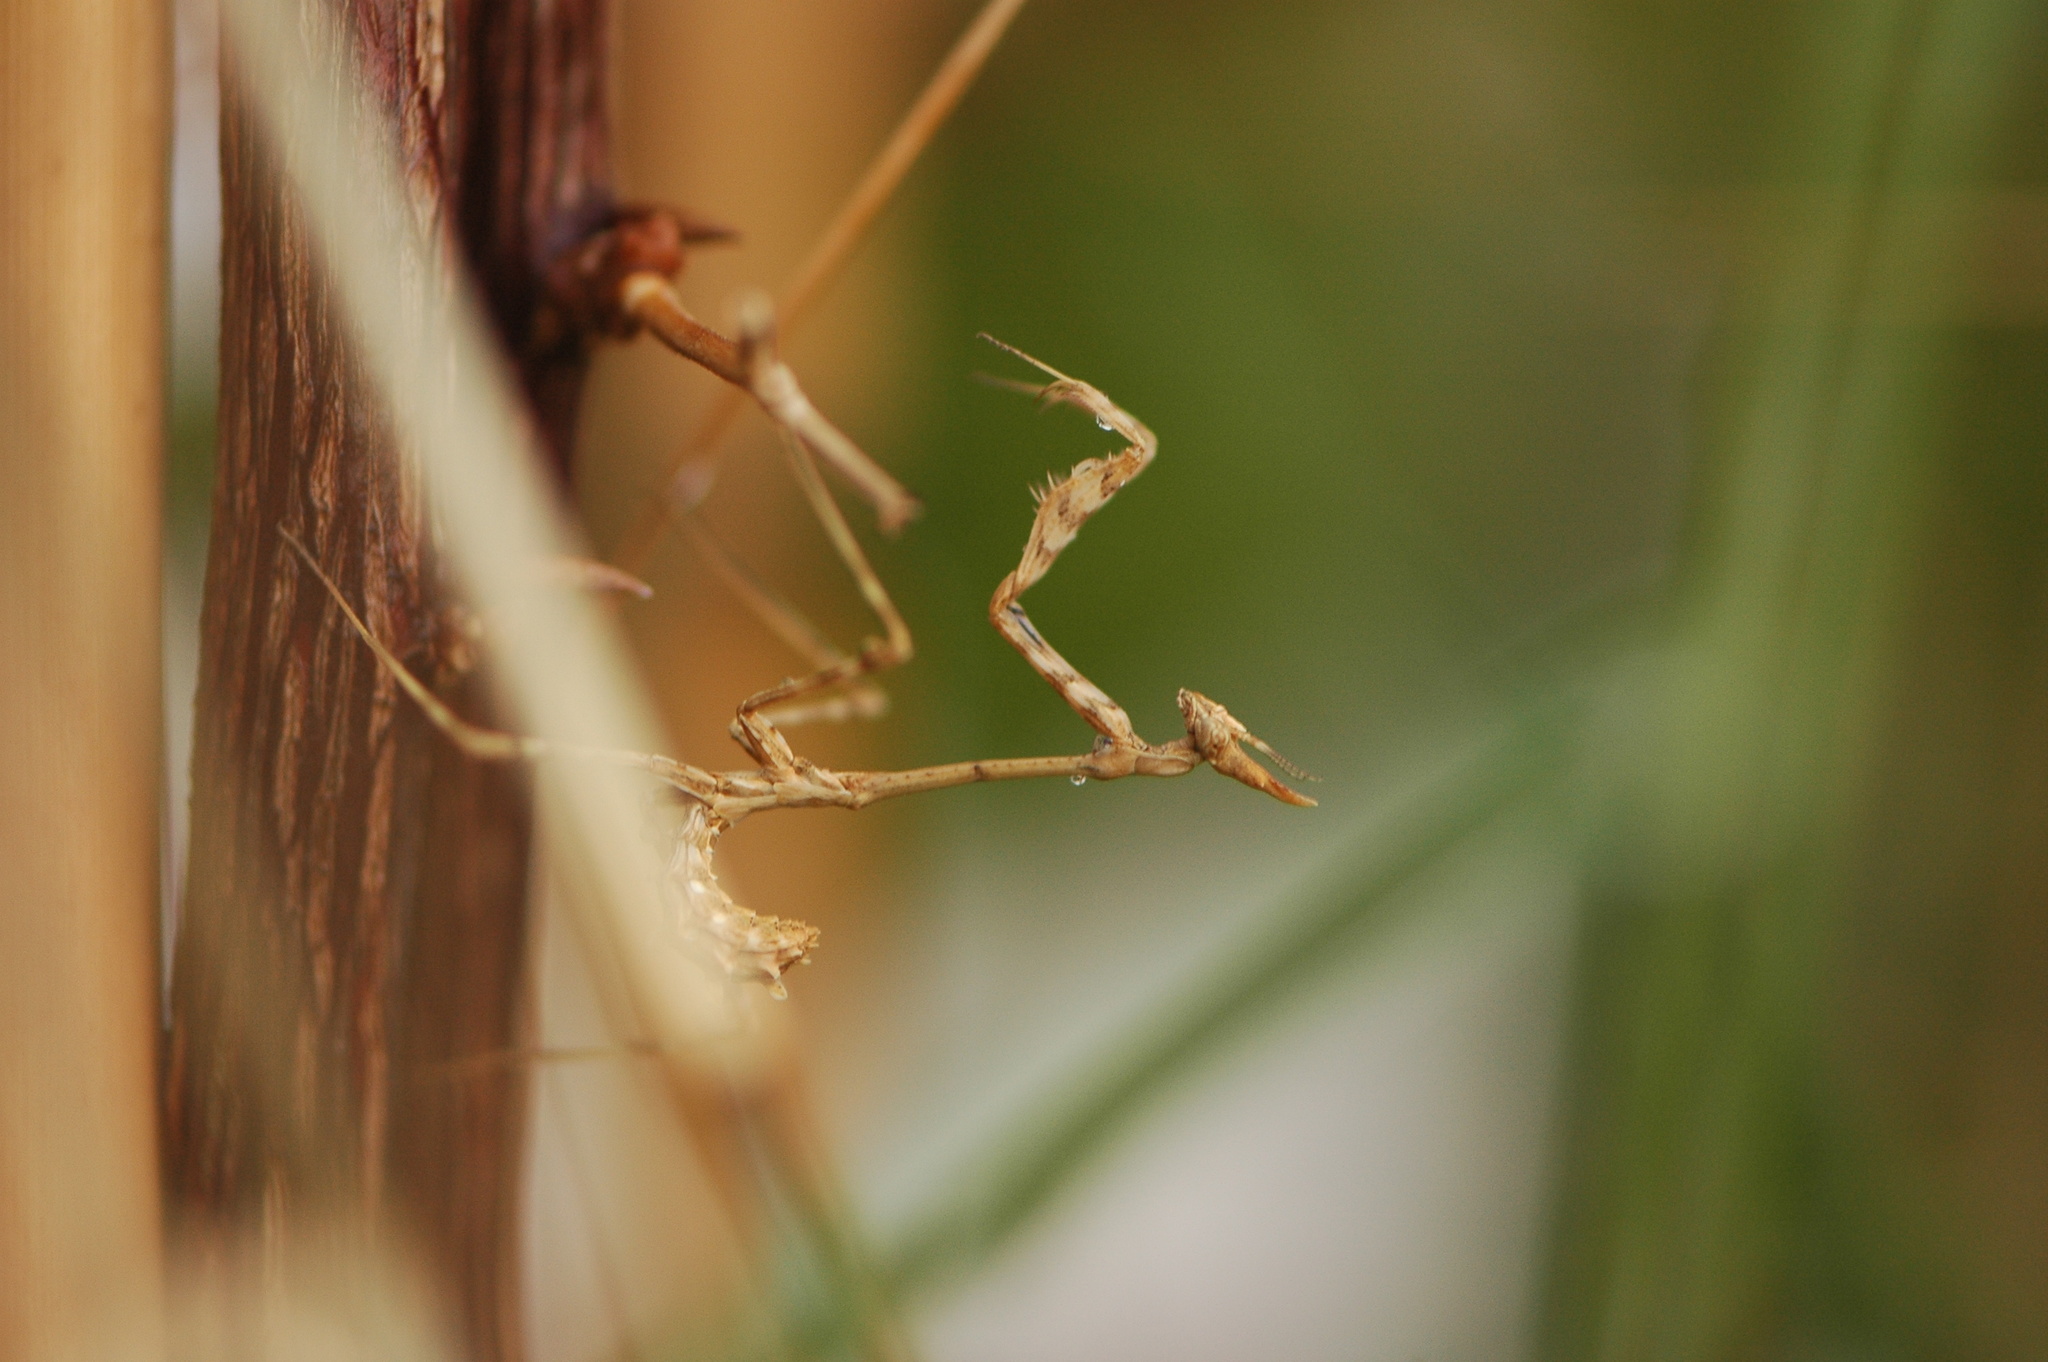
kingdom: Animalia
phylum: Arthropoda
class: Insecta
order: Mantodea
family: Empusidae
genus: Empusa
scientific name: Empusa pennata
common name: Conehead mantis
